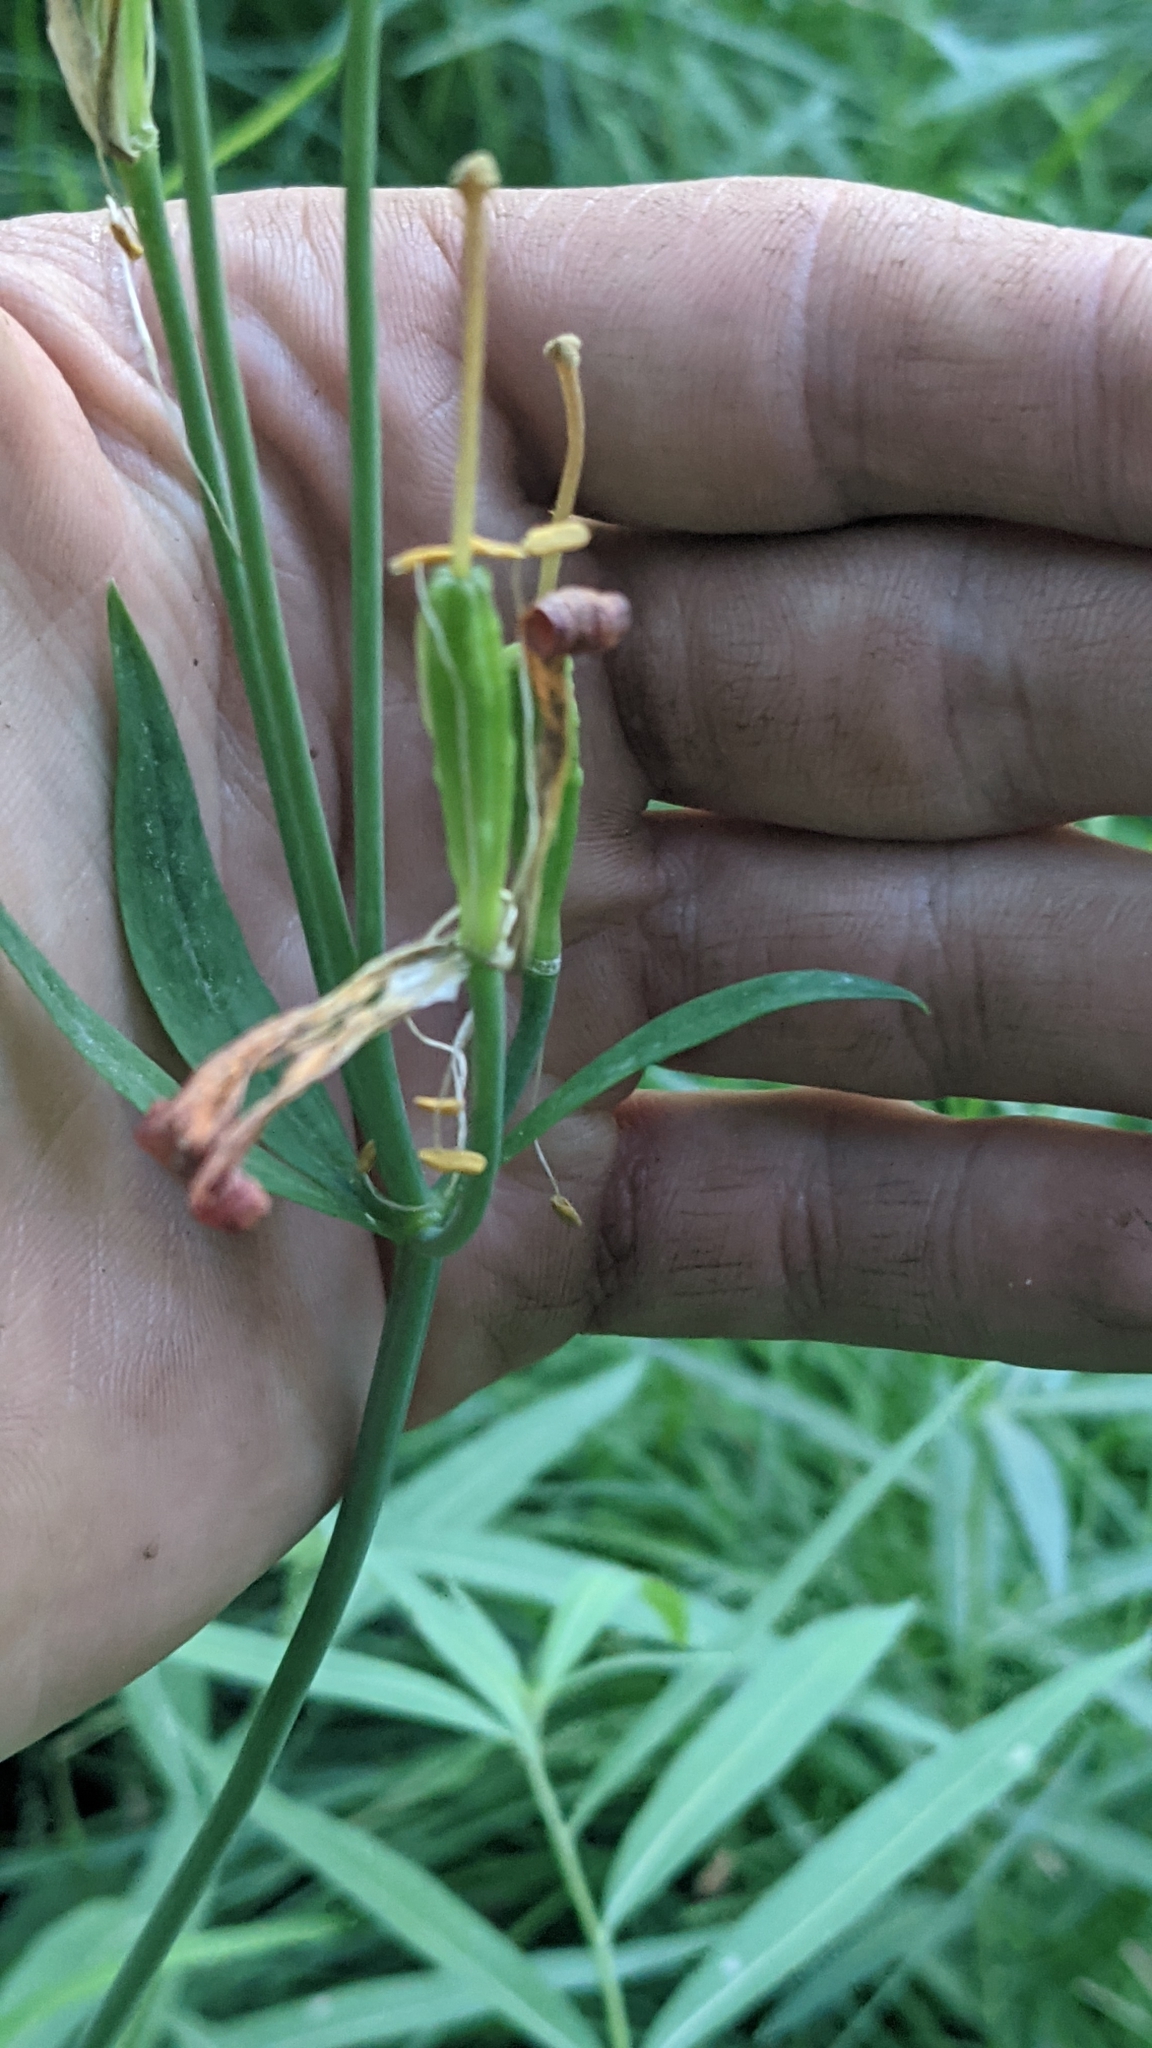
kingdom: Plantae
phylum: Tracheophyta
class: Liliopsida
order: Liliales
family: Liliaceae
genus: Lilium
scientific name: Lilium parvum
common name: Alpine lily
